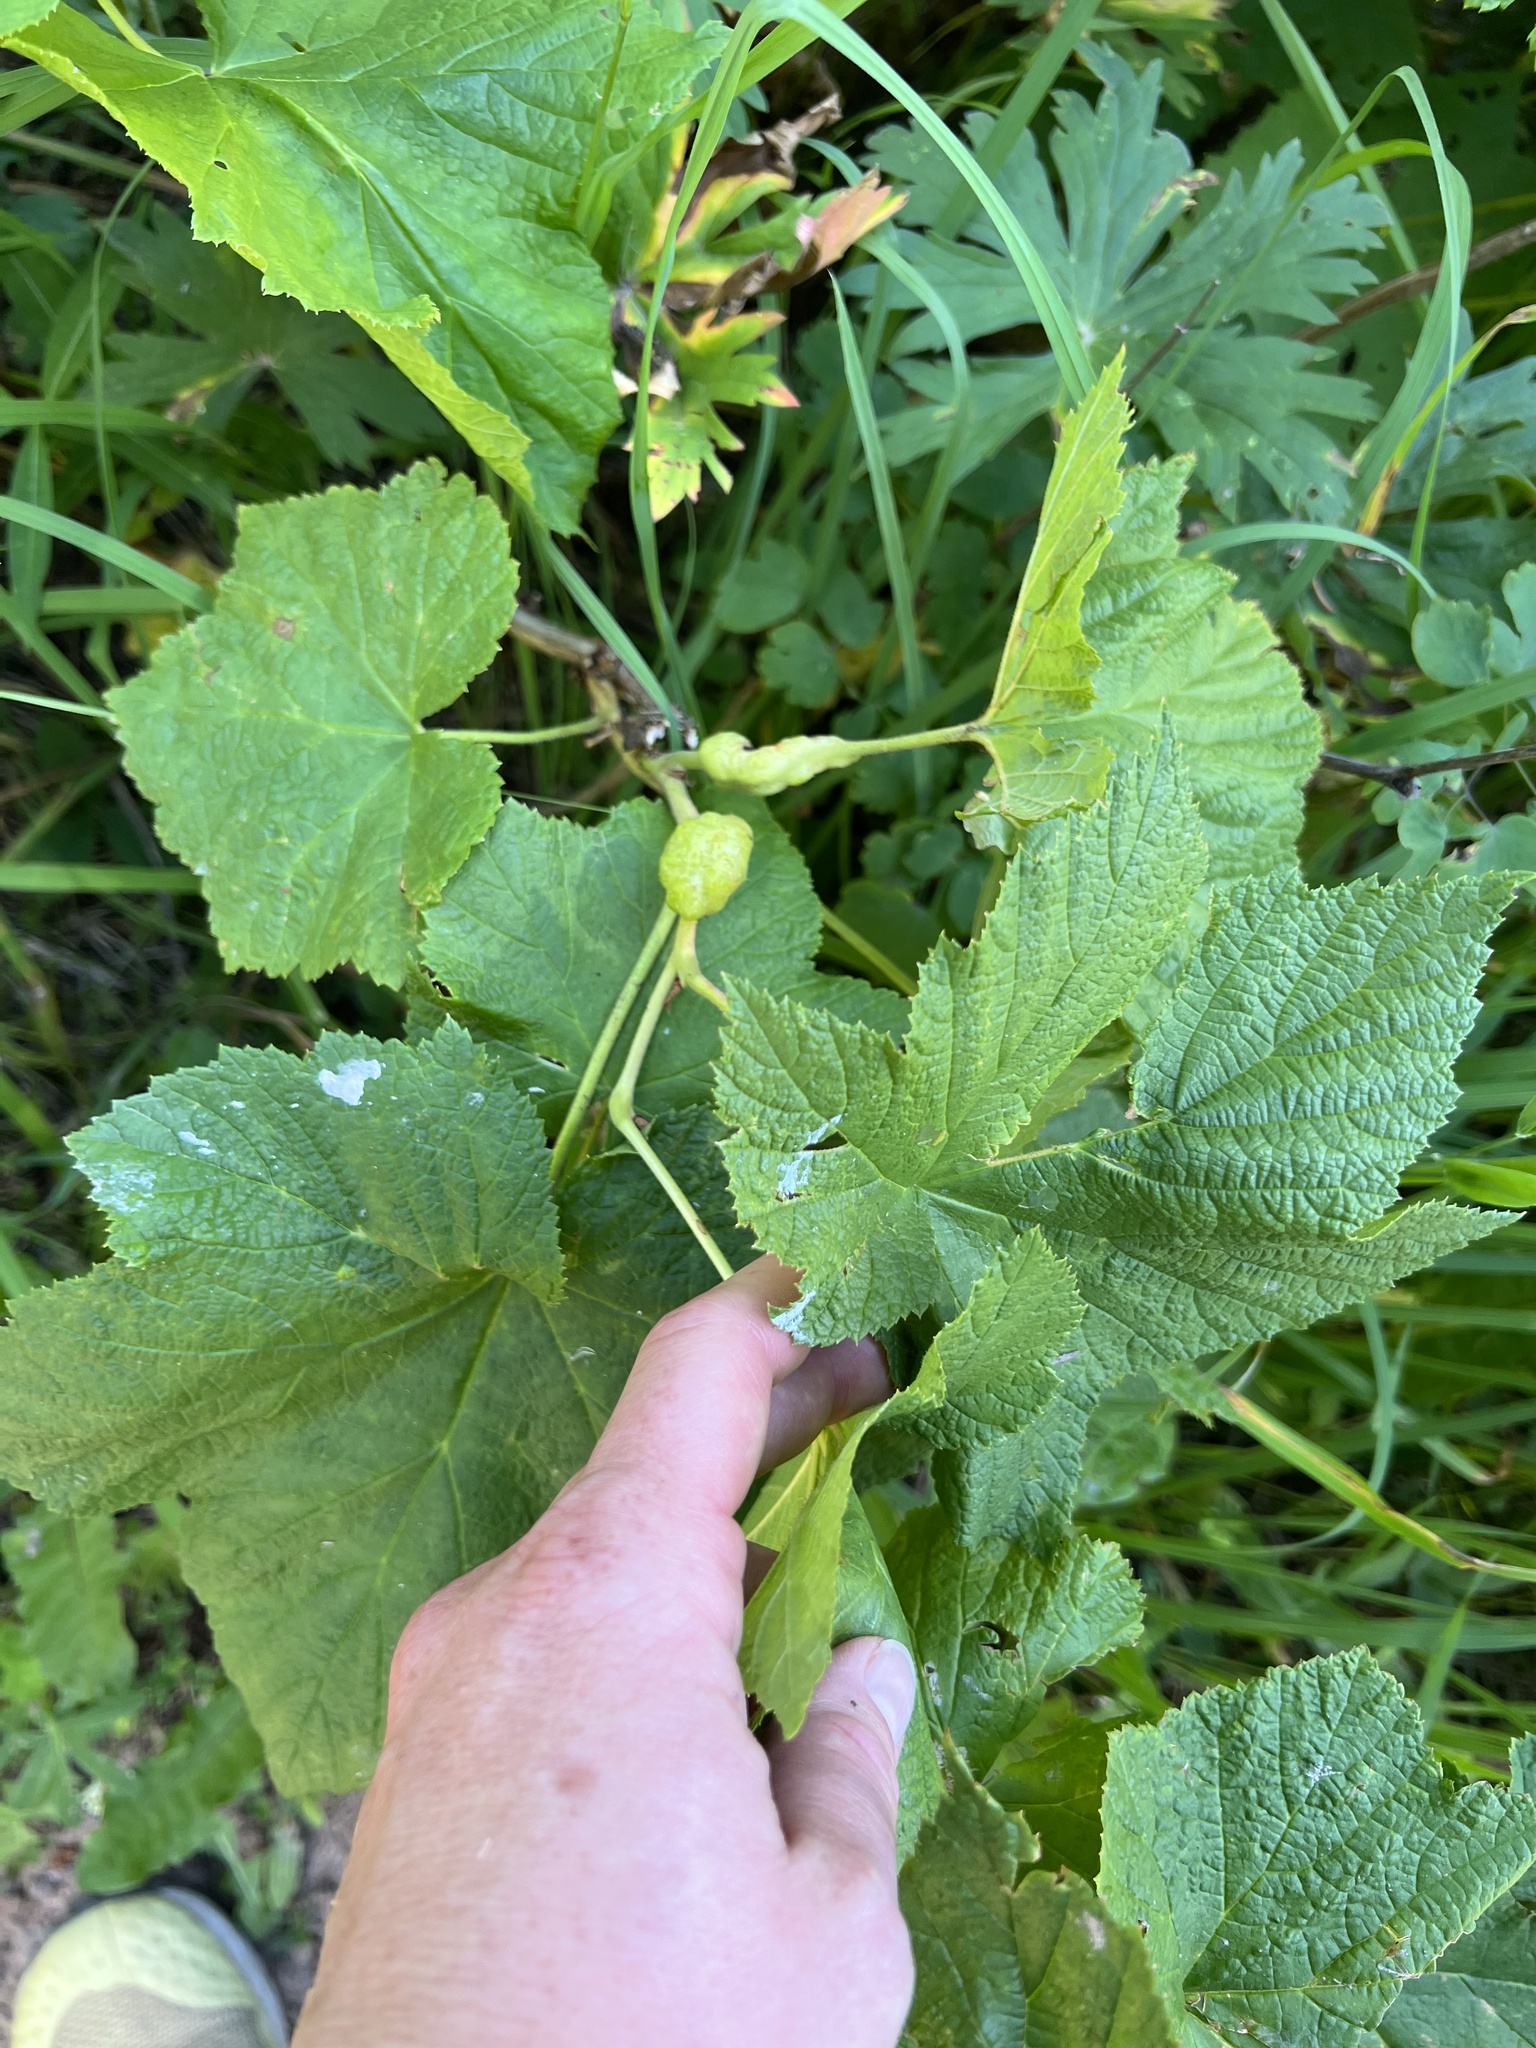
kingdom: Animalia
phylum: Arthropoda
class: Insecta
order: Hymenoptera
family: Cynipidae
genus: Diastrophus
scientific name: Diastrophus
